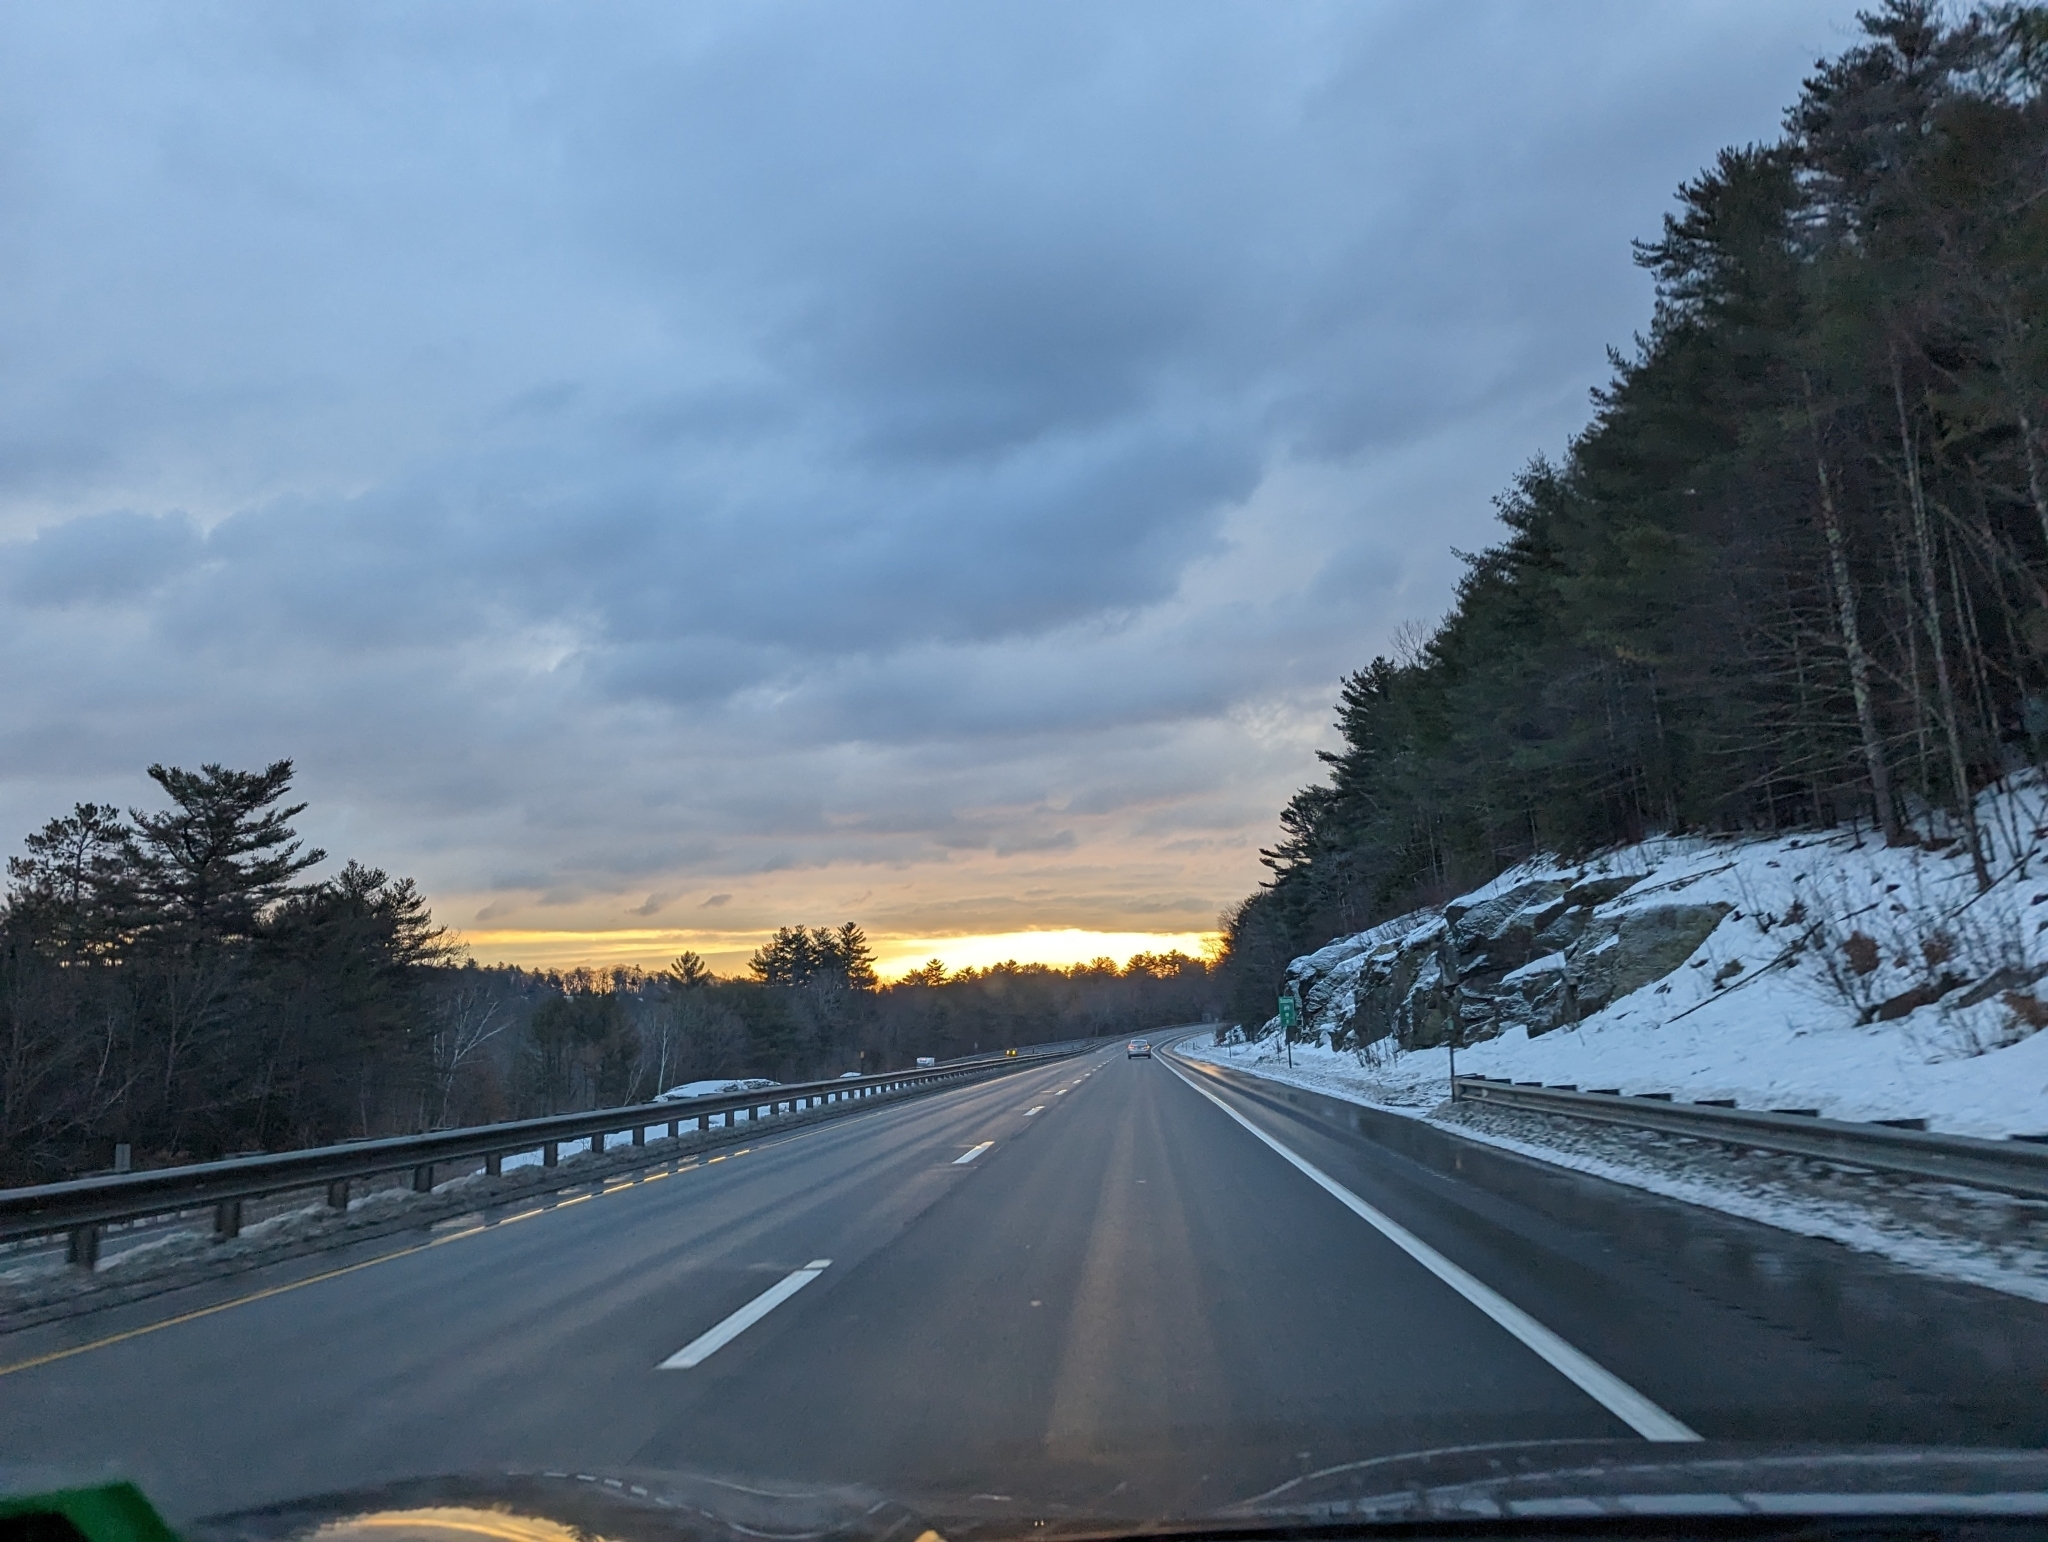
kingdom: Plantae
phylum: Tracheophyta
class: Pinopsida
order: Pinales
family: Pinaceae
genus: Pinus
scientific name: Pinus strobus
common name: Weymouth pine
